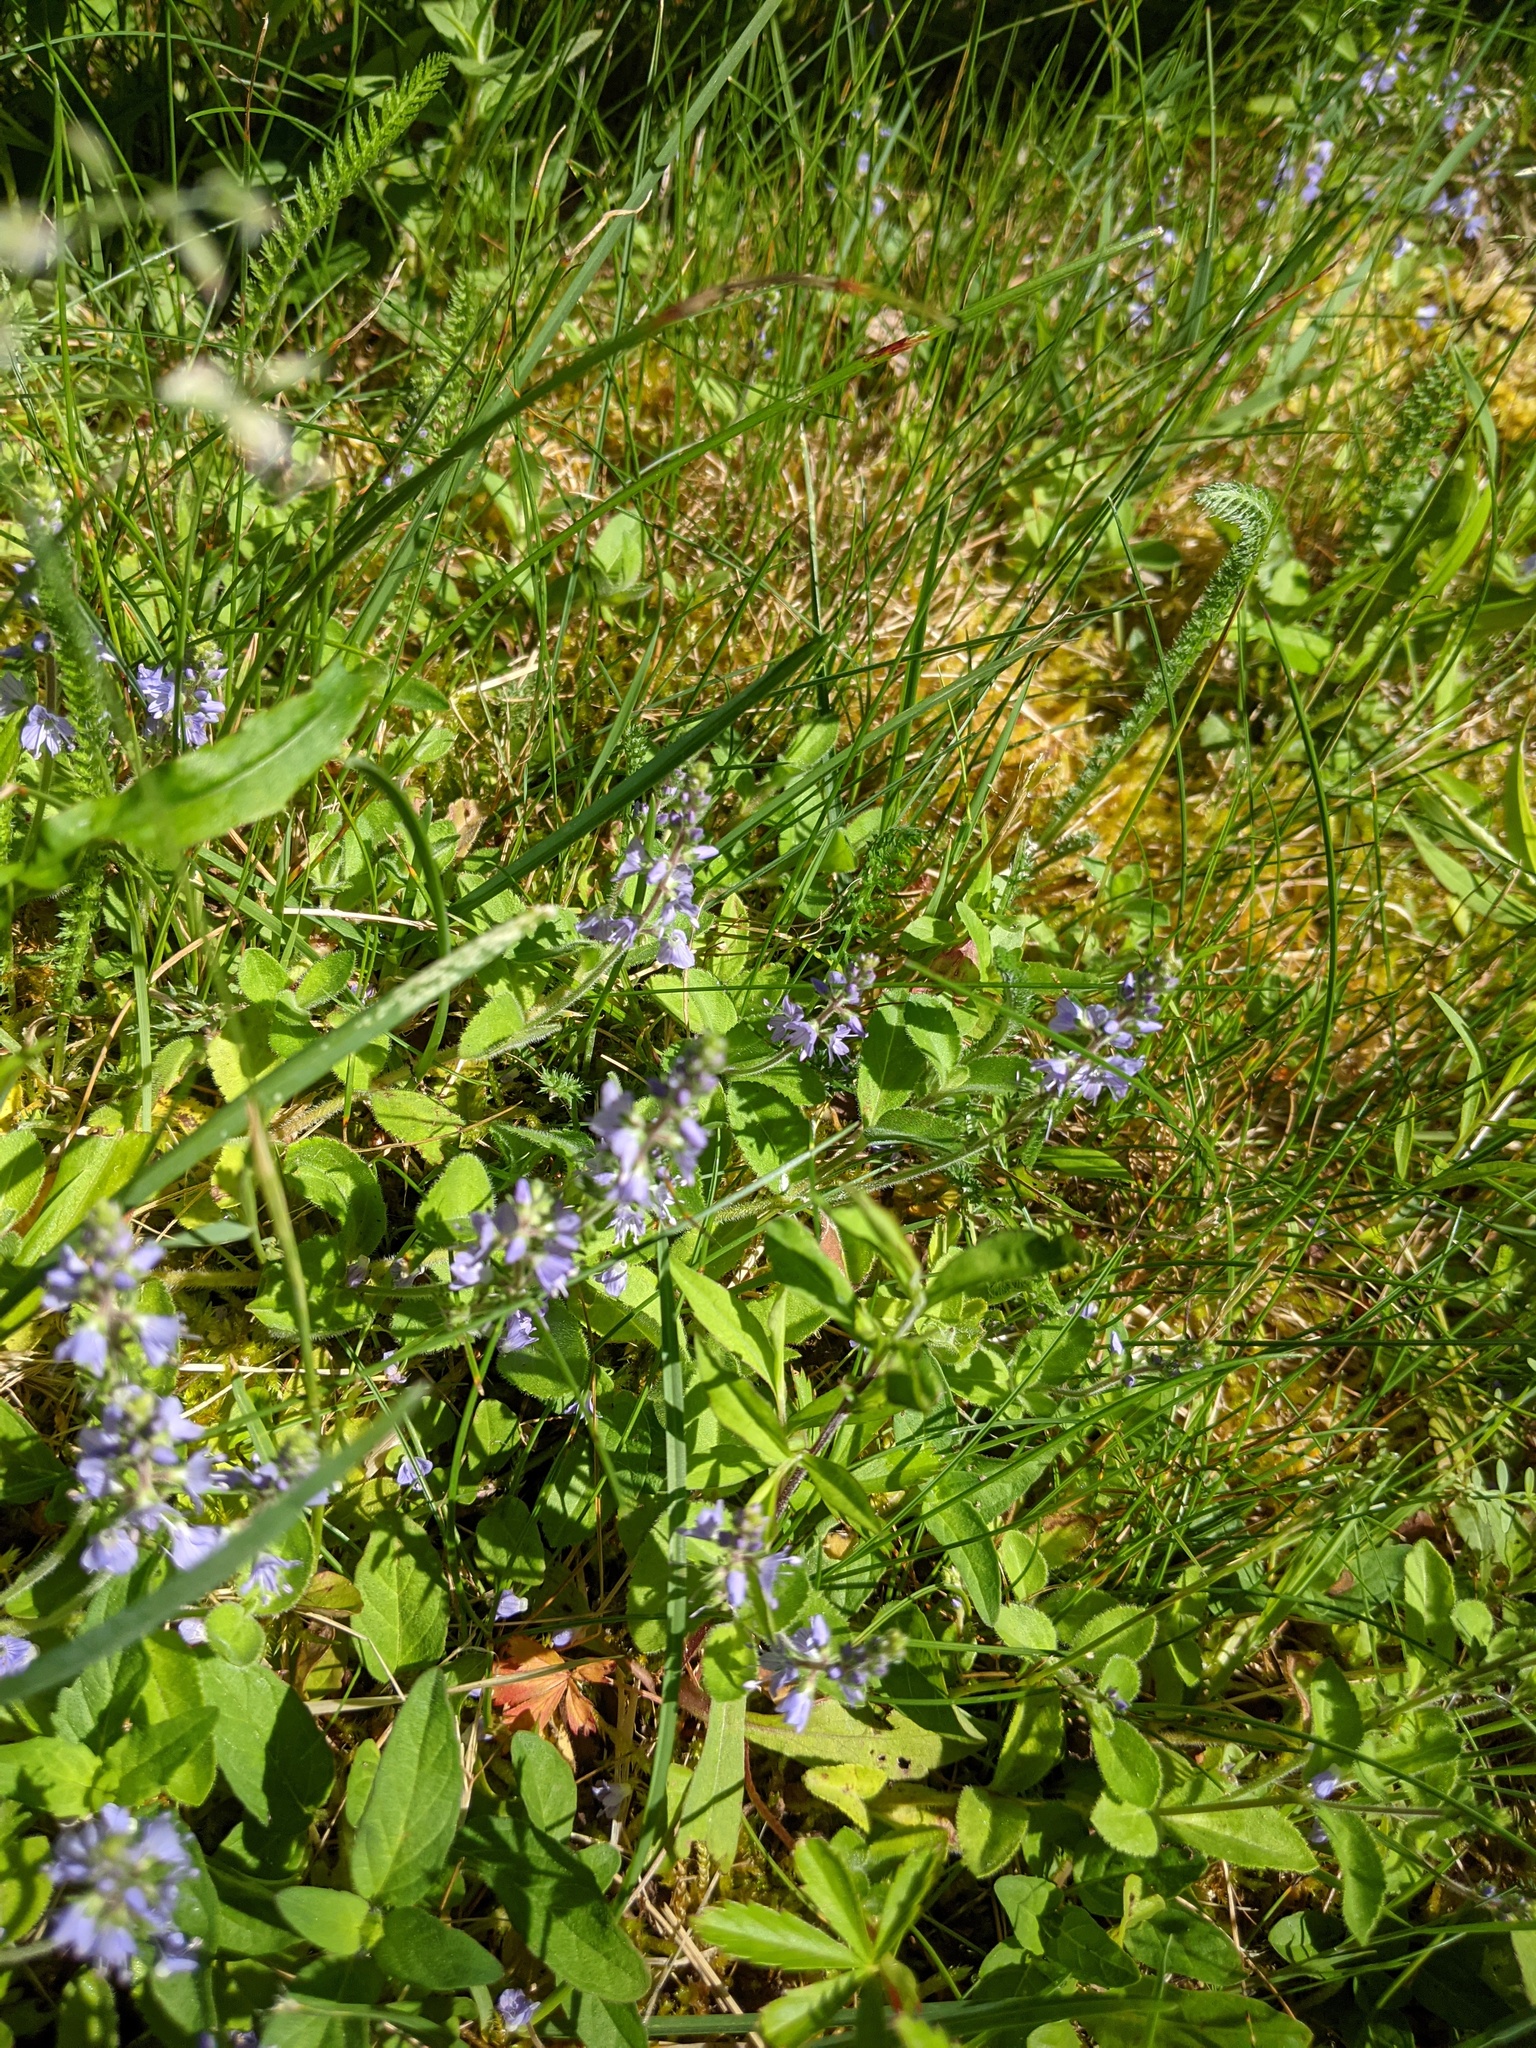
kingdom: Plantae
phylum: Tracheophyta
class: Magnoliopsida
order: Lamiales
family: Plantaginaceae
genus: Veronica
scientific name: Veronica officinalis
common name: Common speedwell
